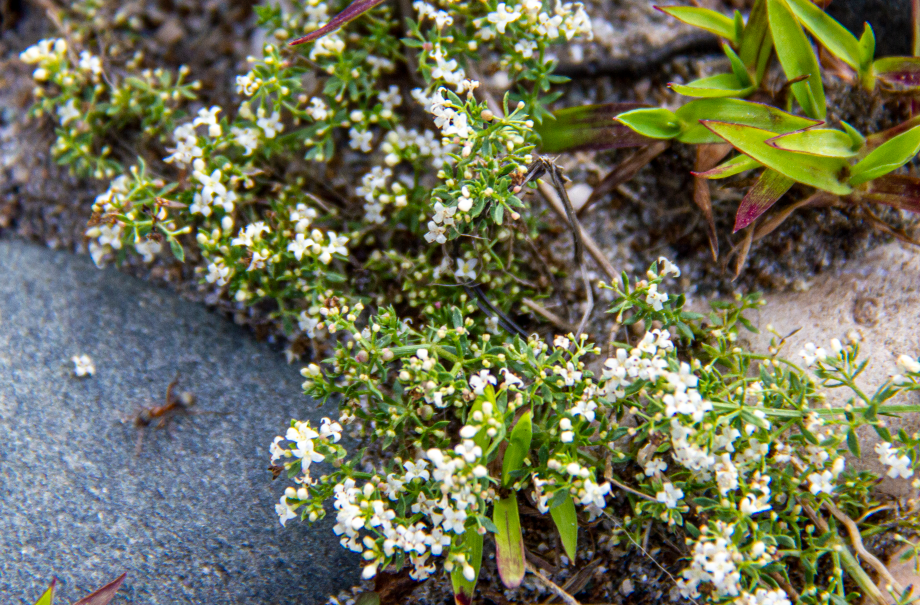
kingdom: Plantae
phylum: Tracheophyta
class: Magnoliopsida
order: Gentianales
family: Rubiaceae
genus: Galium
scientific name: Galium humifusum
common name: Spreading bedstraw
